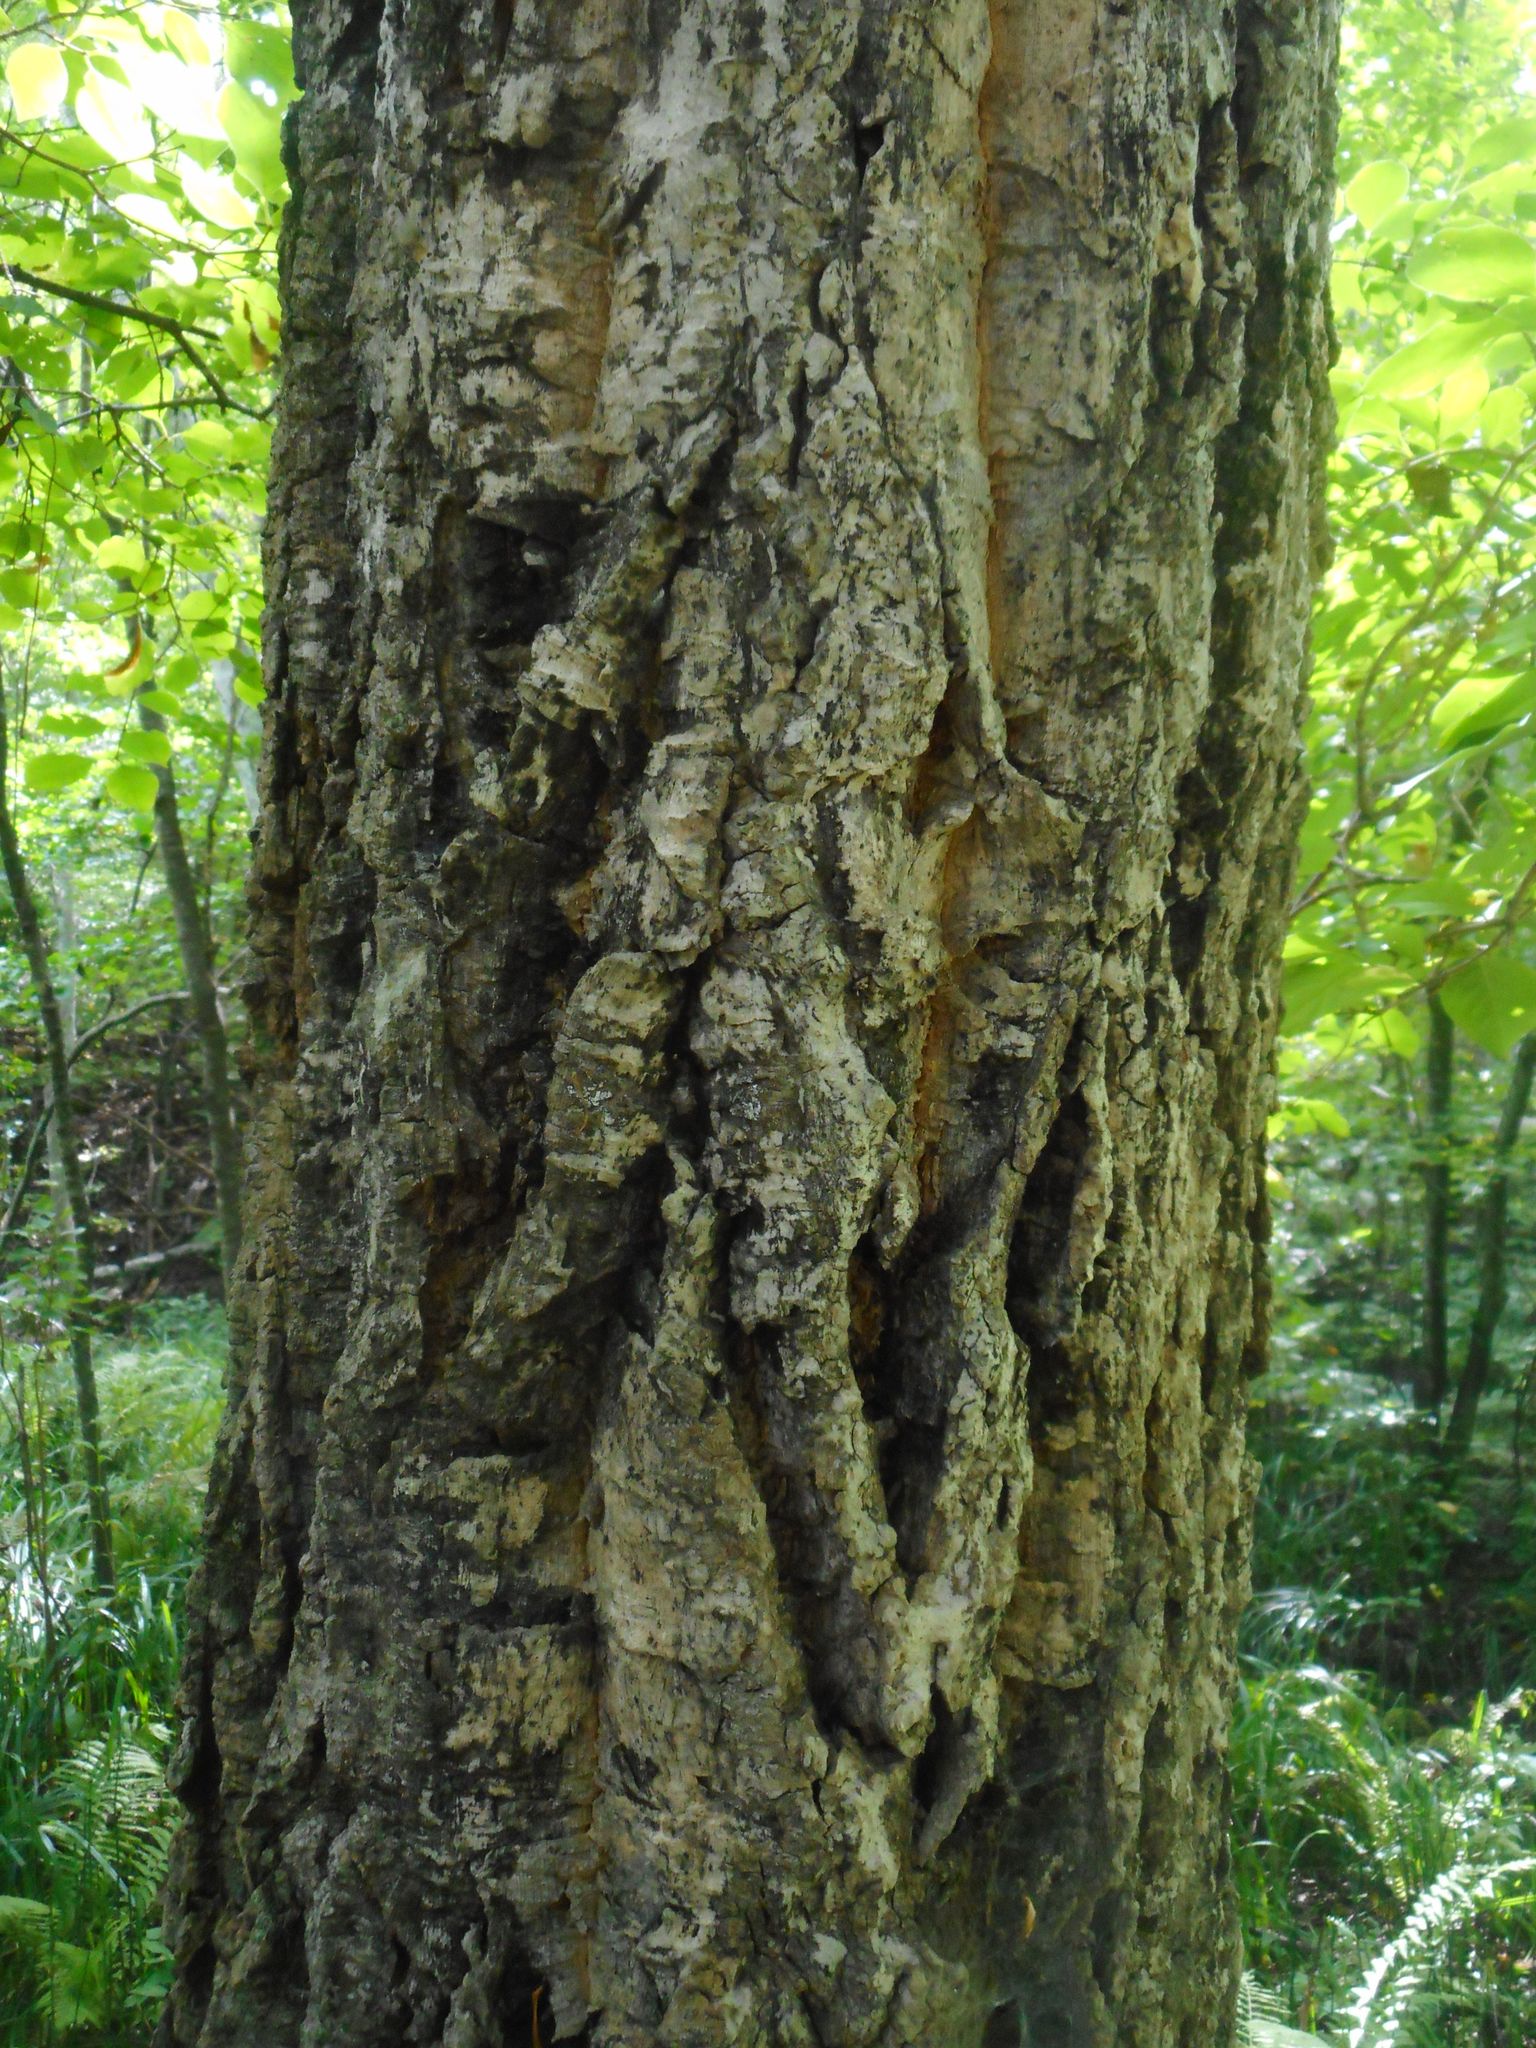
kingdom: Plantae
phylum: Tracheophyta
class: Magnoliopsida
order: Sapindales
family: Rutaceae
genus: Phellodendron
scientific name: Phellodendron amurense
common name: Amur corktree
